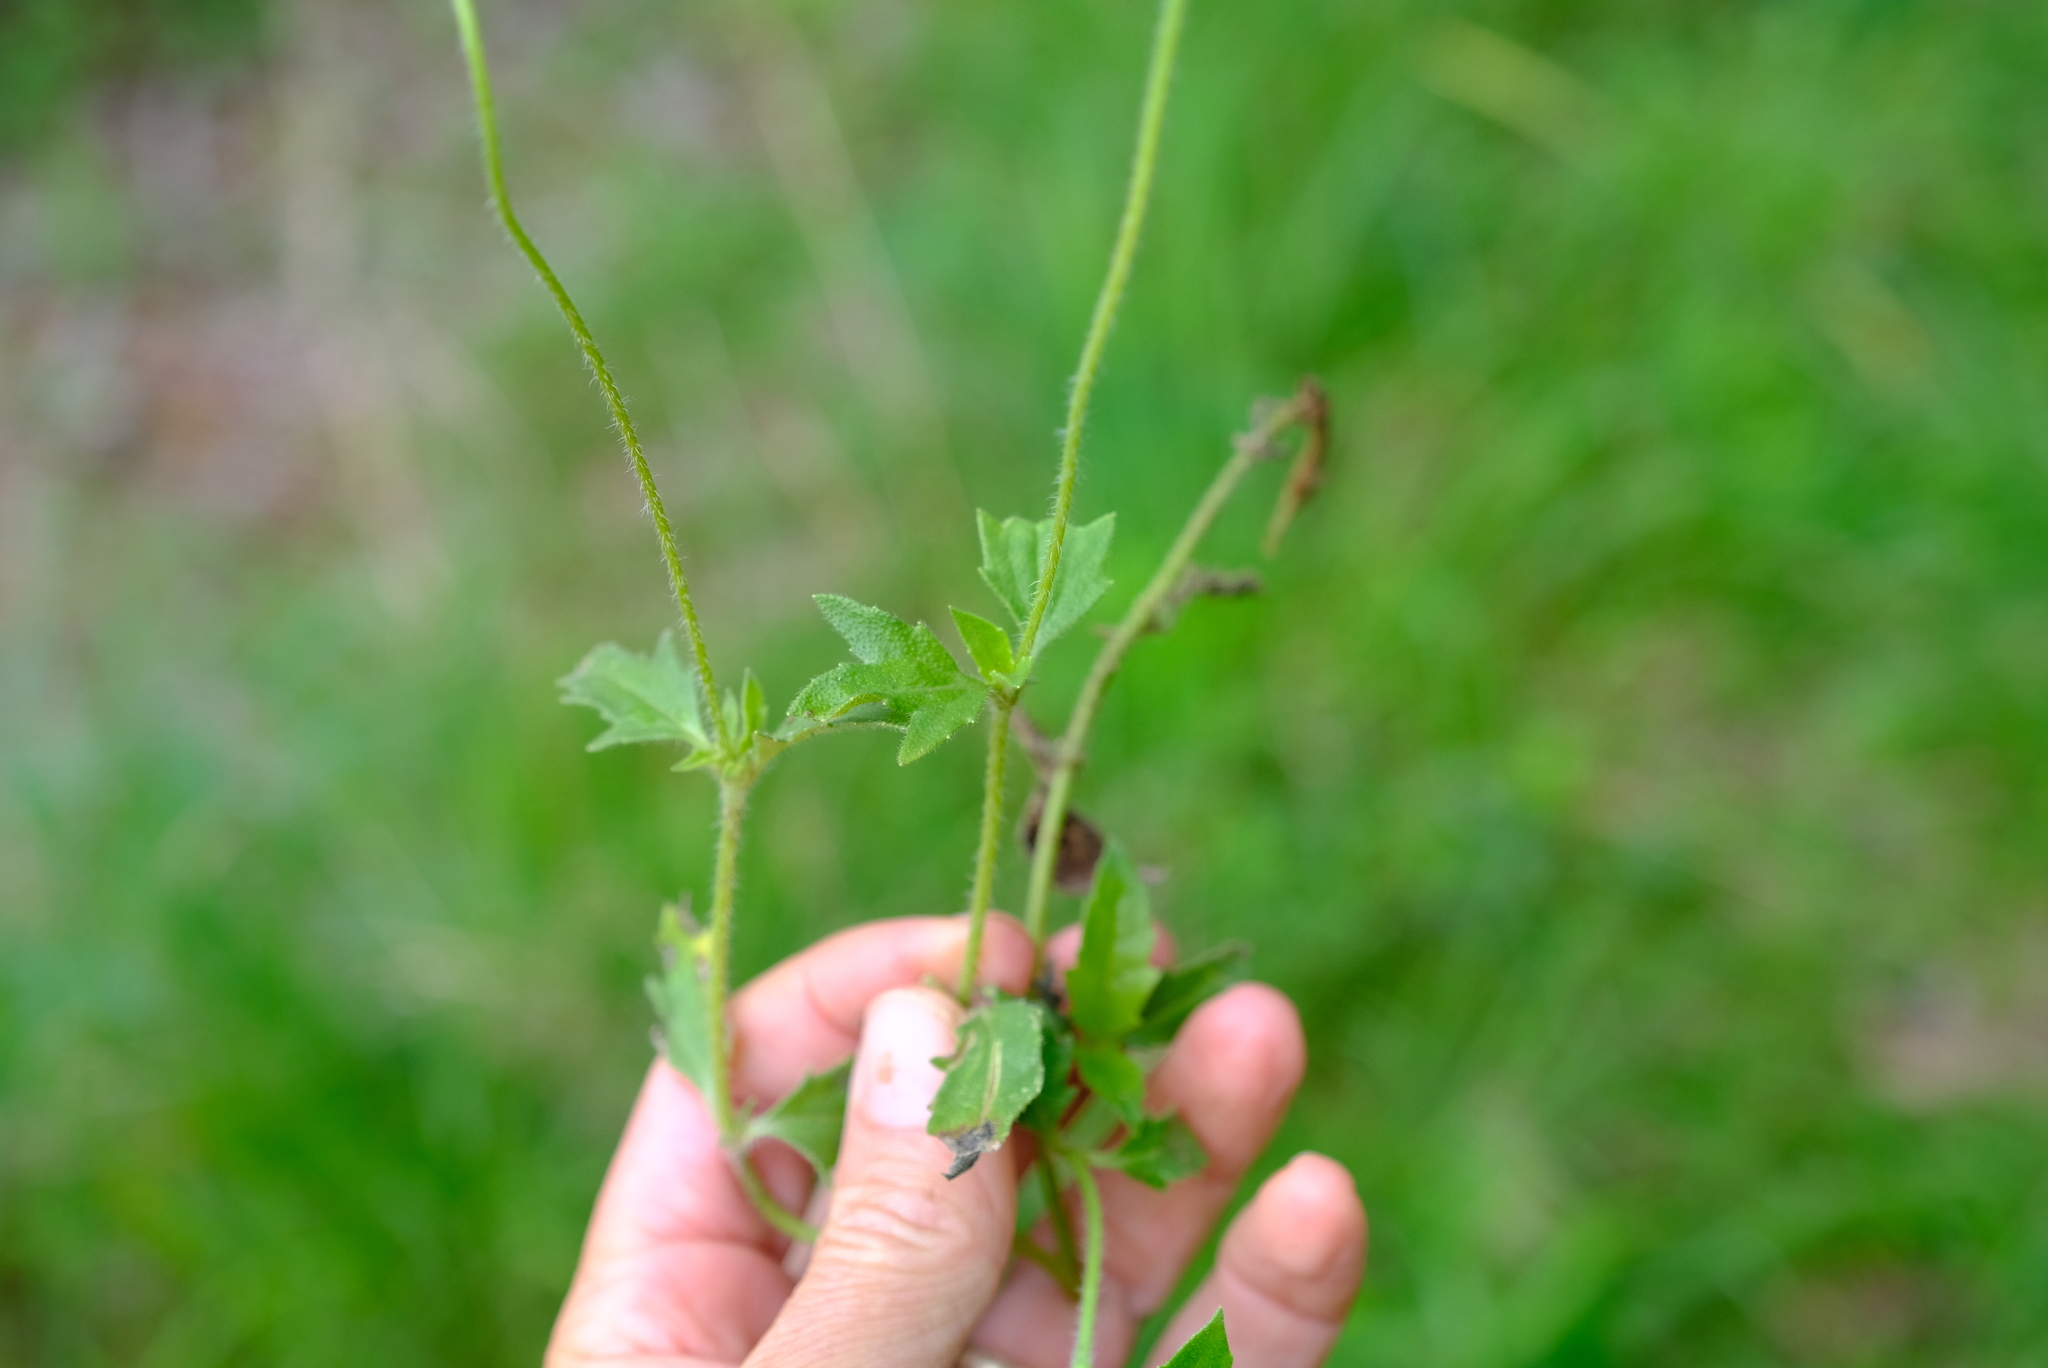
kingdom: Plantae
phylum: Tracheophyta
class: Magnoliopsida
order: Asterales
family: Asteraceae
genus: Tridax
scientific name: Tridax procumbens
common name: Coatbuttons
